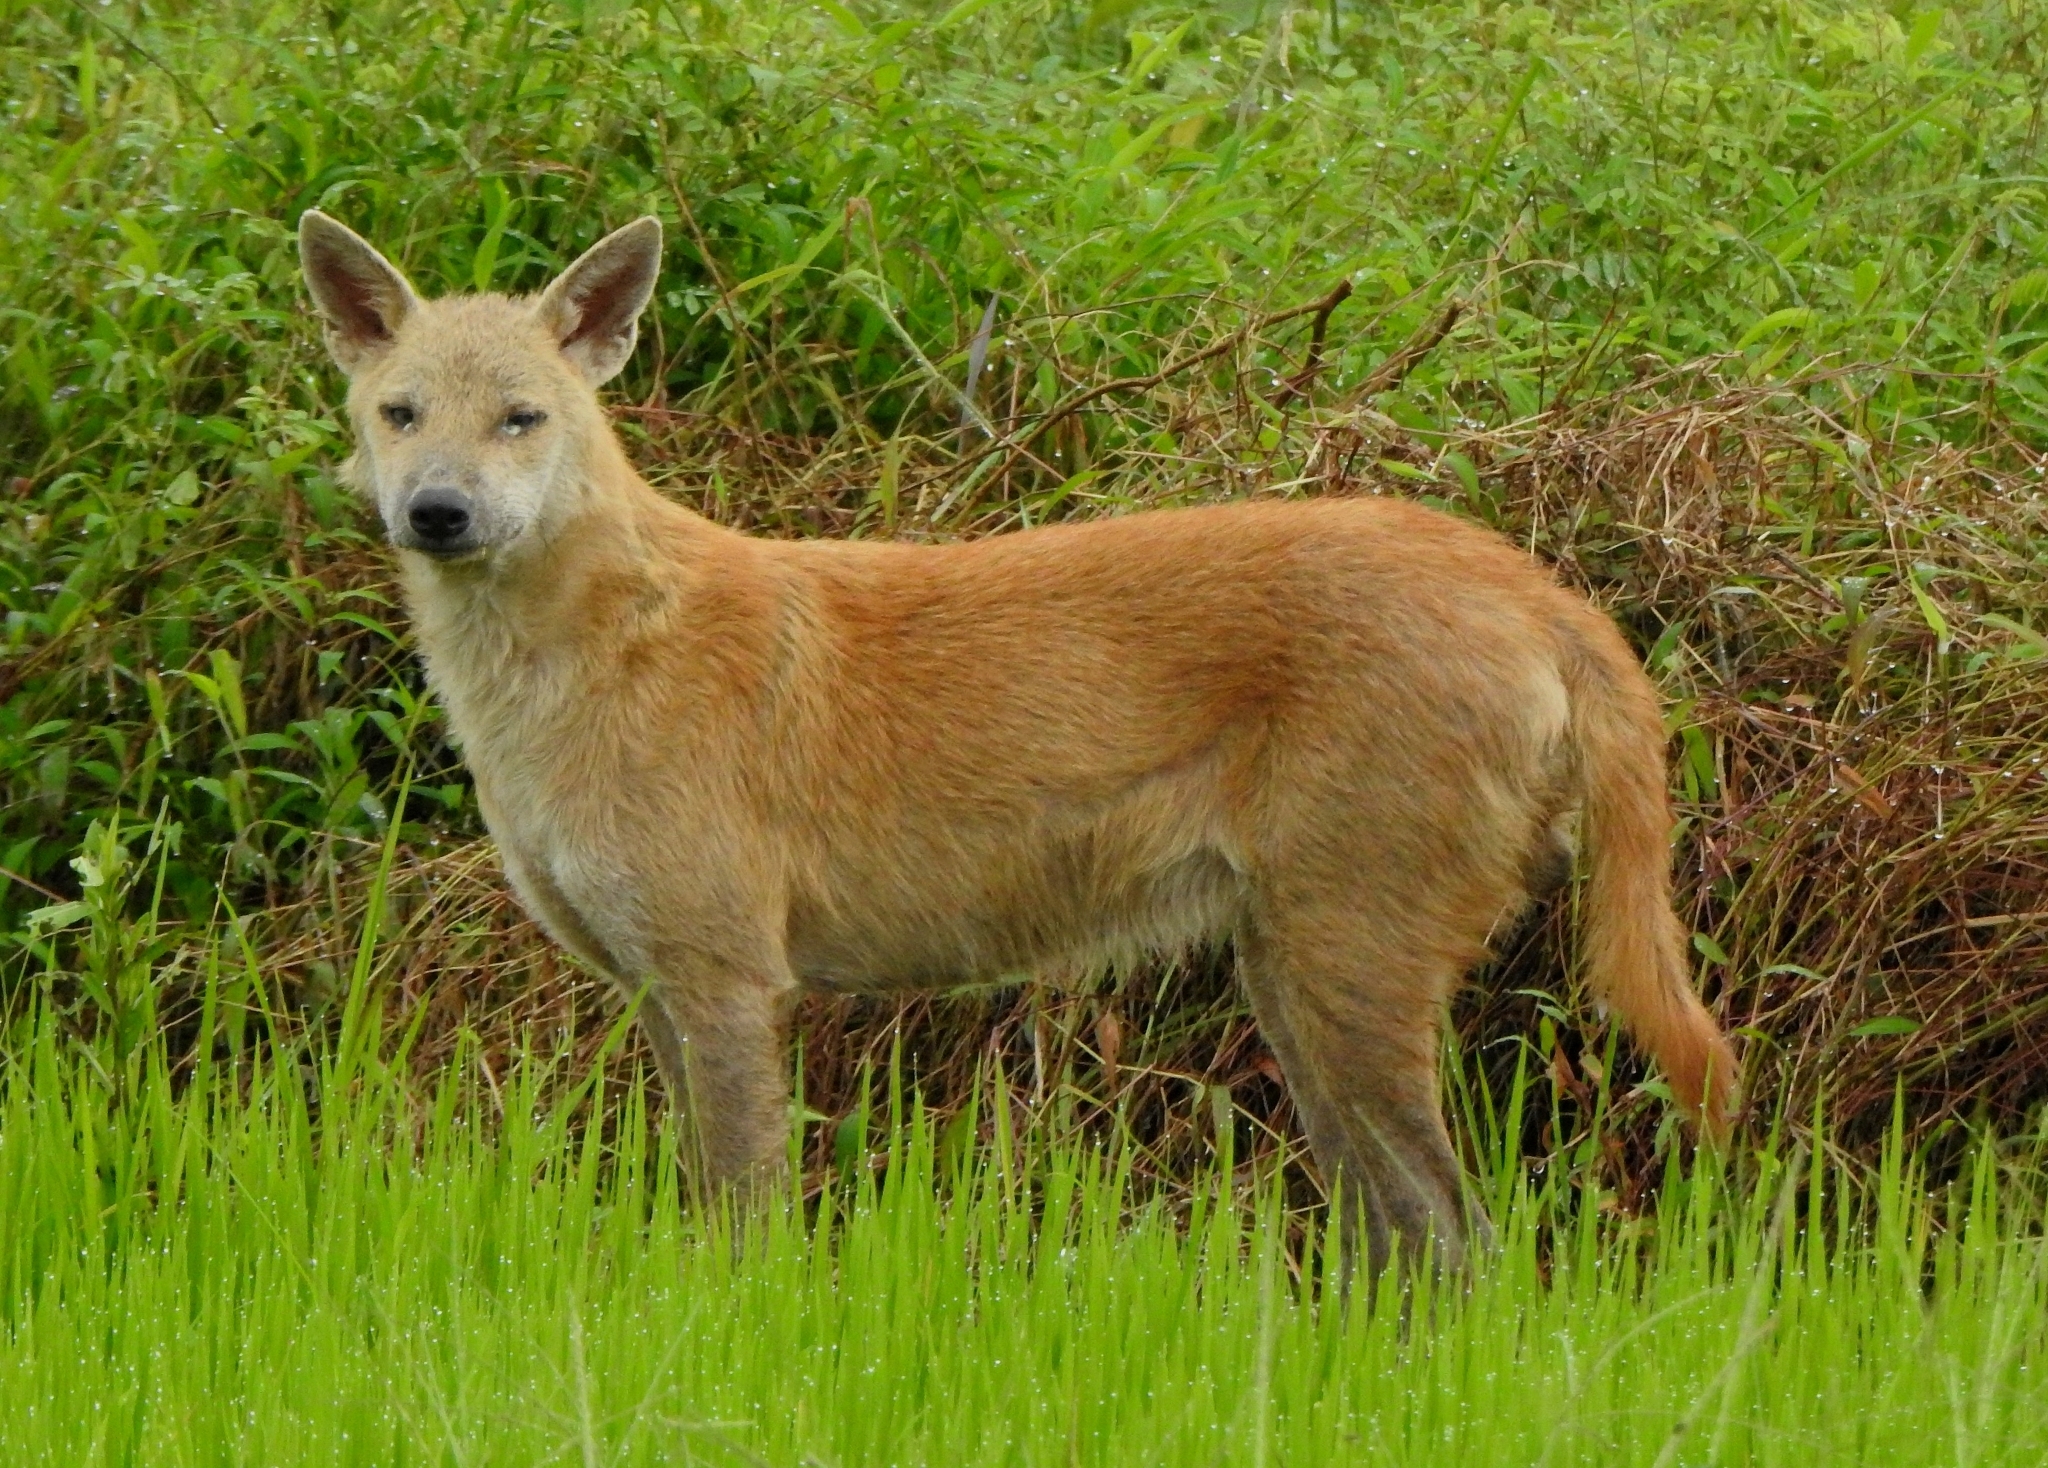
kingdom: Animalia
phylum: Chordata
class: Mammalia
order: Carnivora
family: Canidae
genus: Canis
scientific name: Canis lupus
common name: Gray wolf
